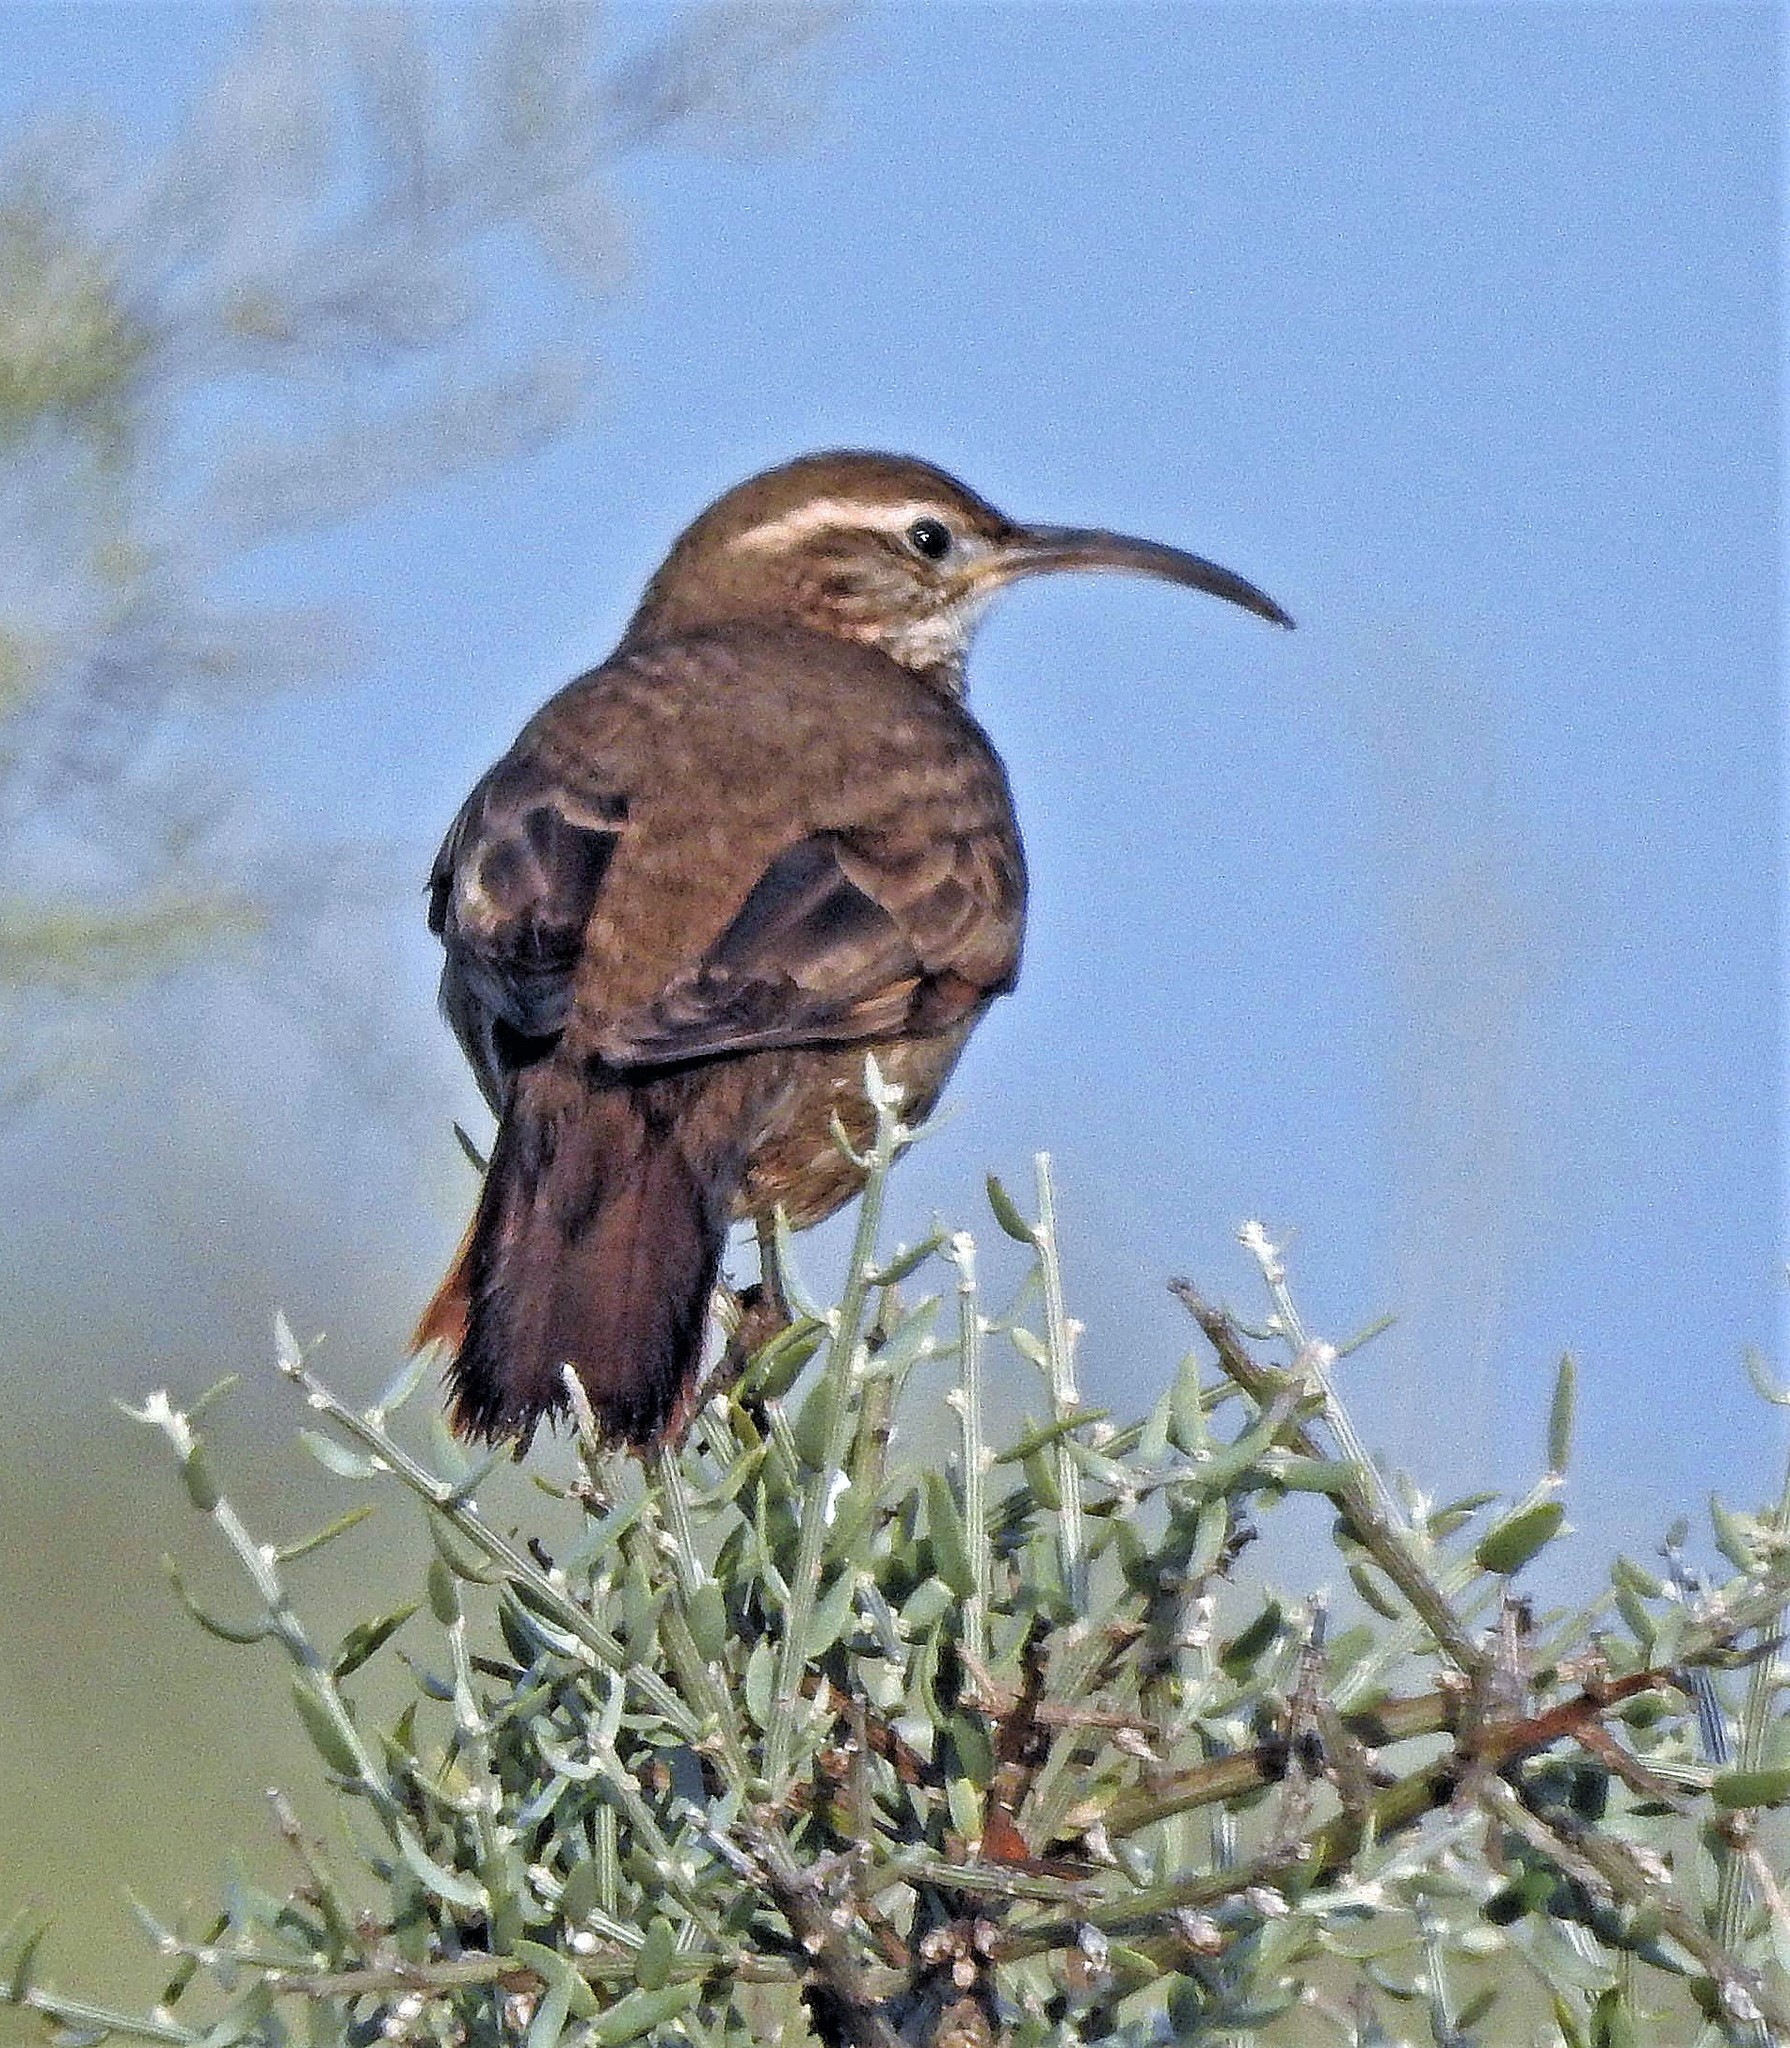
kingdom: Animalia
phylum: Chordata
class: Aves
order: Passeriformes
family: Furnariidae
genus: Upucerthia
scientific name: Upucerthia dumetaria
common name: Scale-throated earthcreeper
